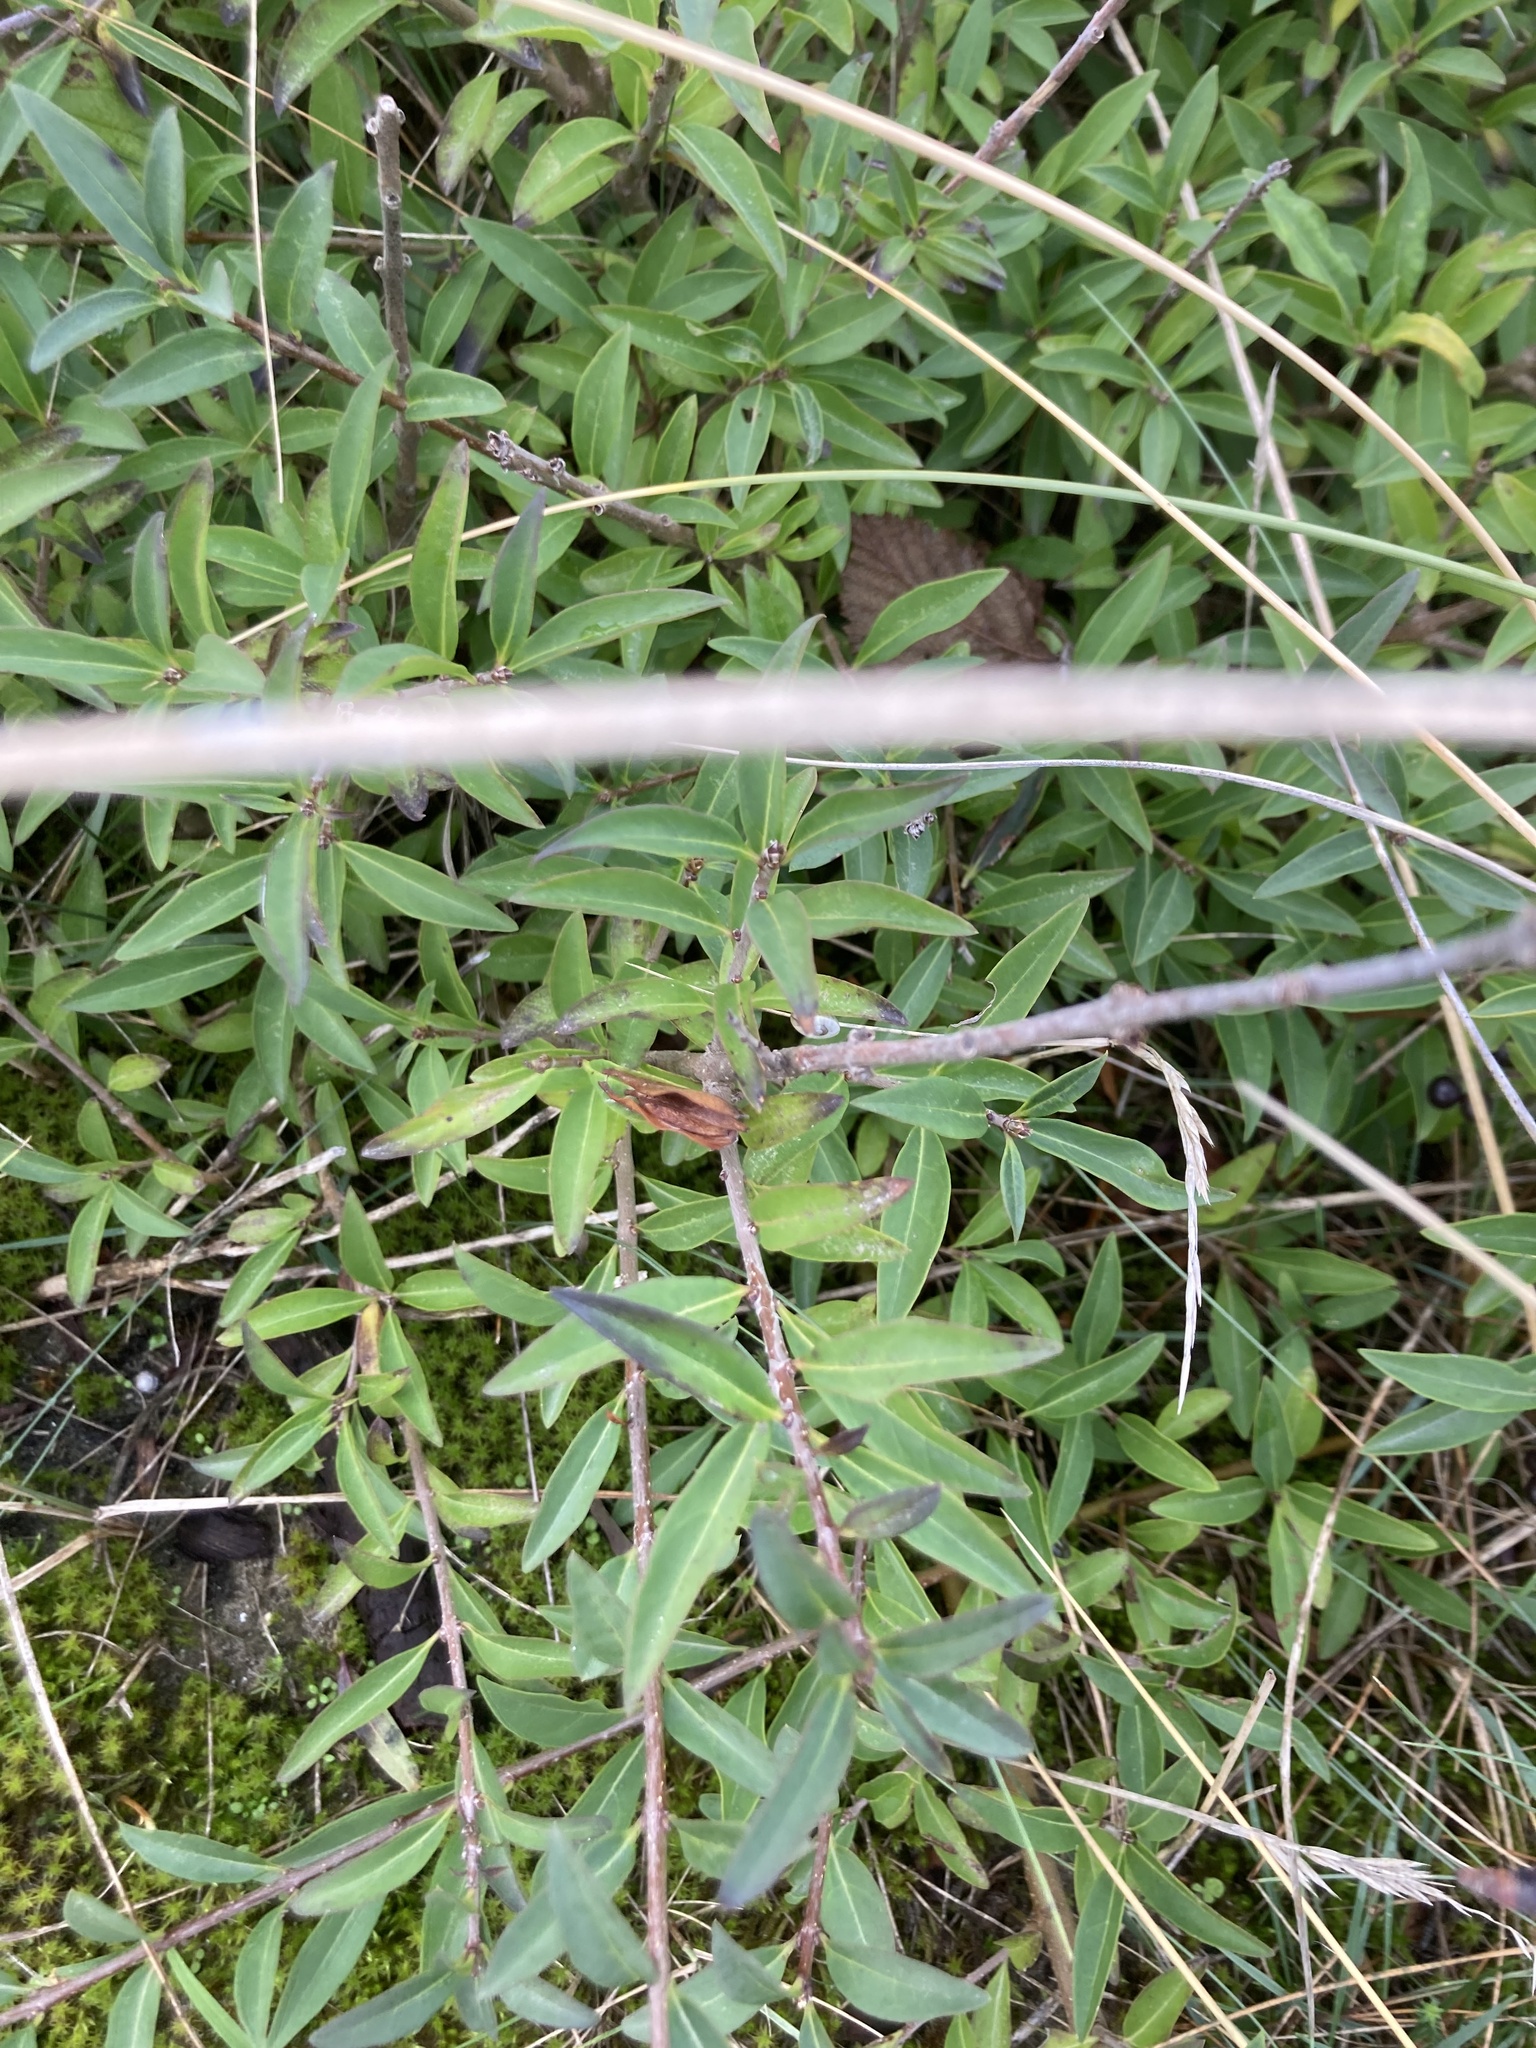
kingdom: Plantae
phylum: Tracheophyta
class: Magnoliopsida
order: Lamiales
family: Oleaceae
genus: Ligustrum
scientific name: Ligustrum vulgare
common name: Wild privet
